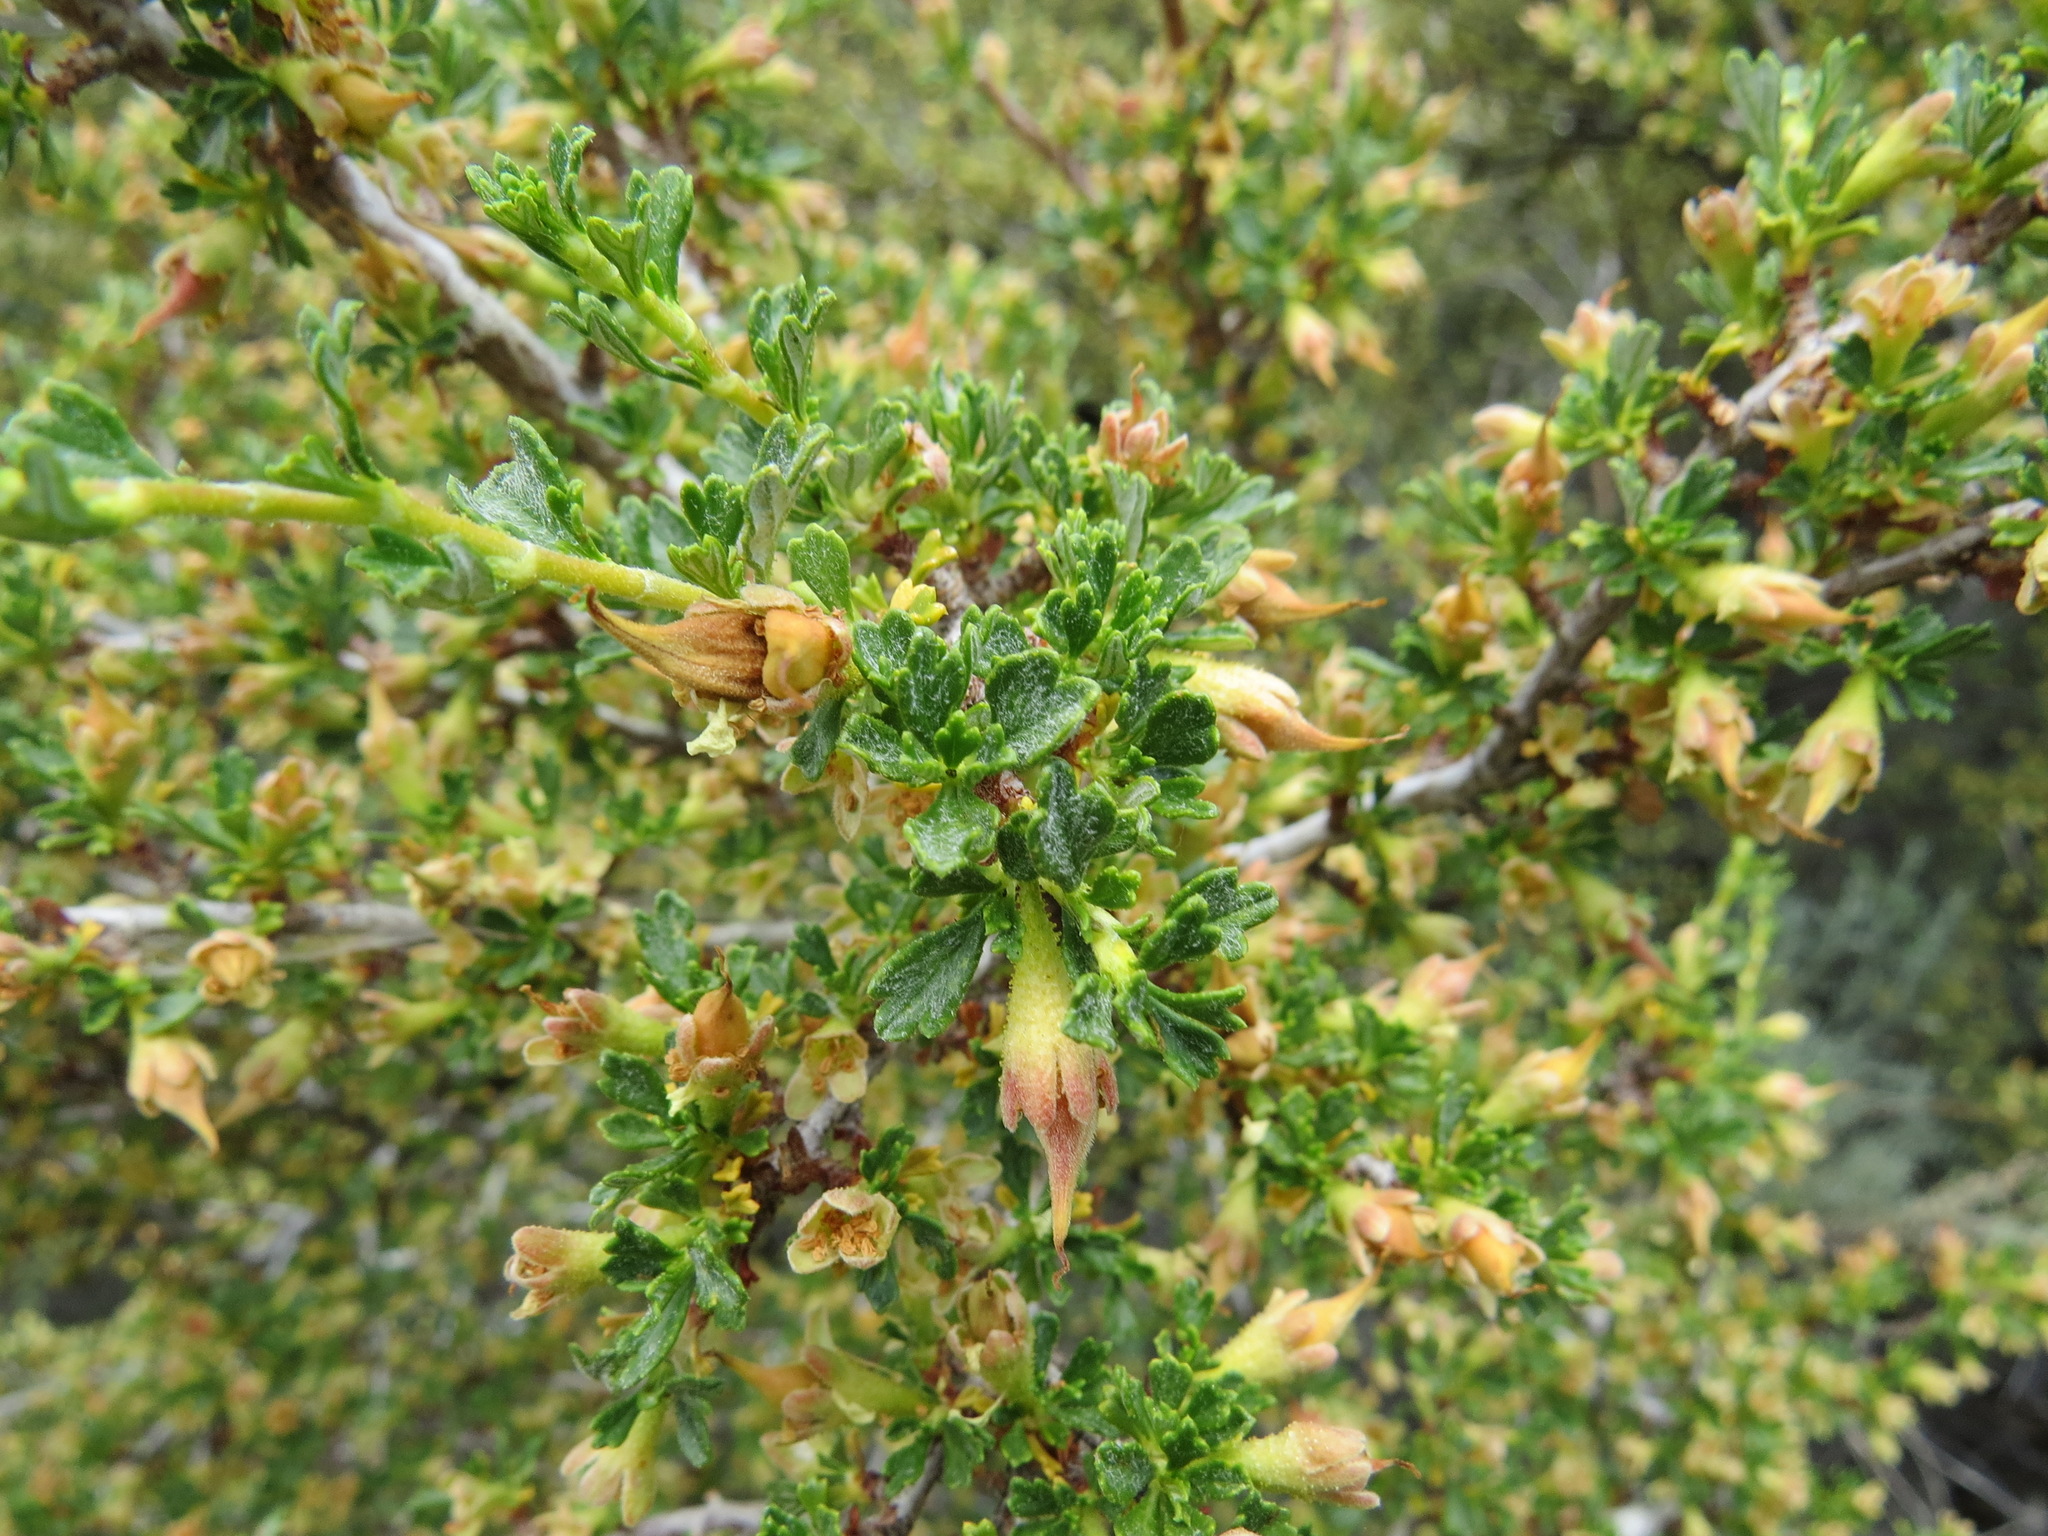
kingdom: Plantae
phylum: Tracheophyta
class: Magnoliopsida
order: Rosales
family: Rosaceae
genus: Purshia
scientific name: Purshia tridentata
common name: Antelope bitterbrush
